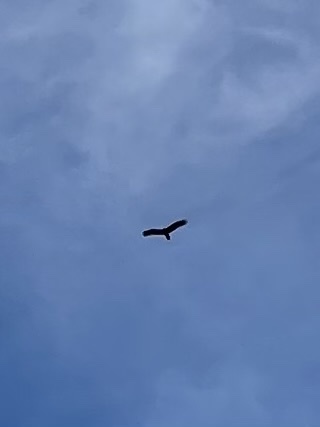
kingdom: Animalia
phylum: Chordata
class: Aves
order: Accipitriformes
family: Cathartidae
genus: Cathartes
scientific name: Cathartes aura
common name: Turkey vulture
